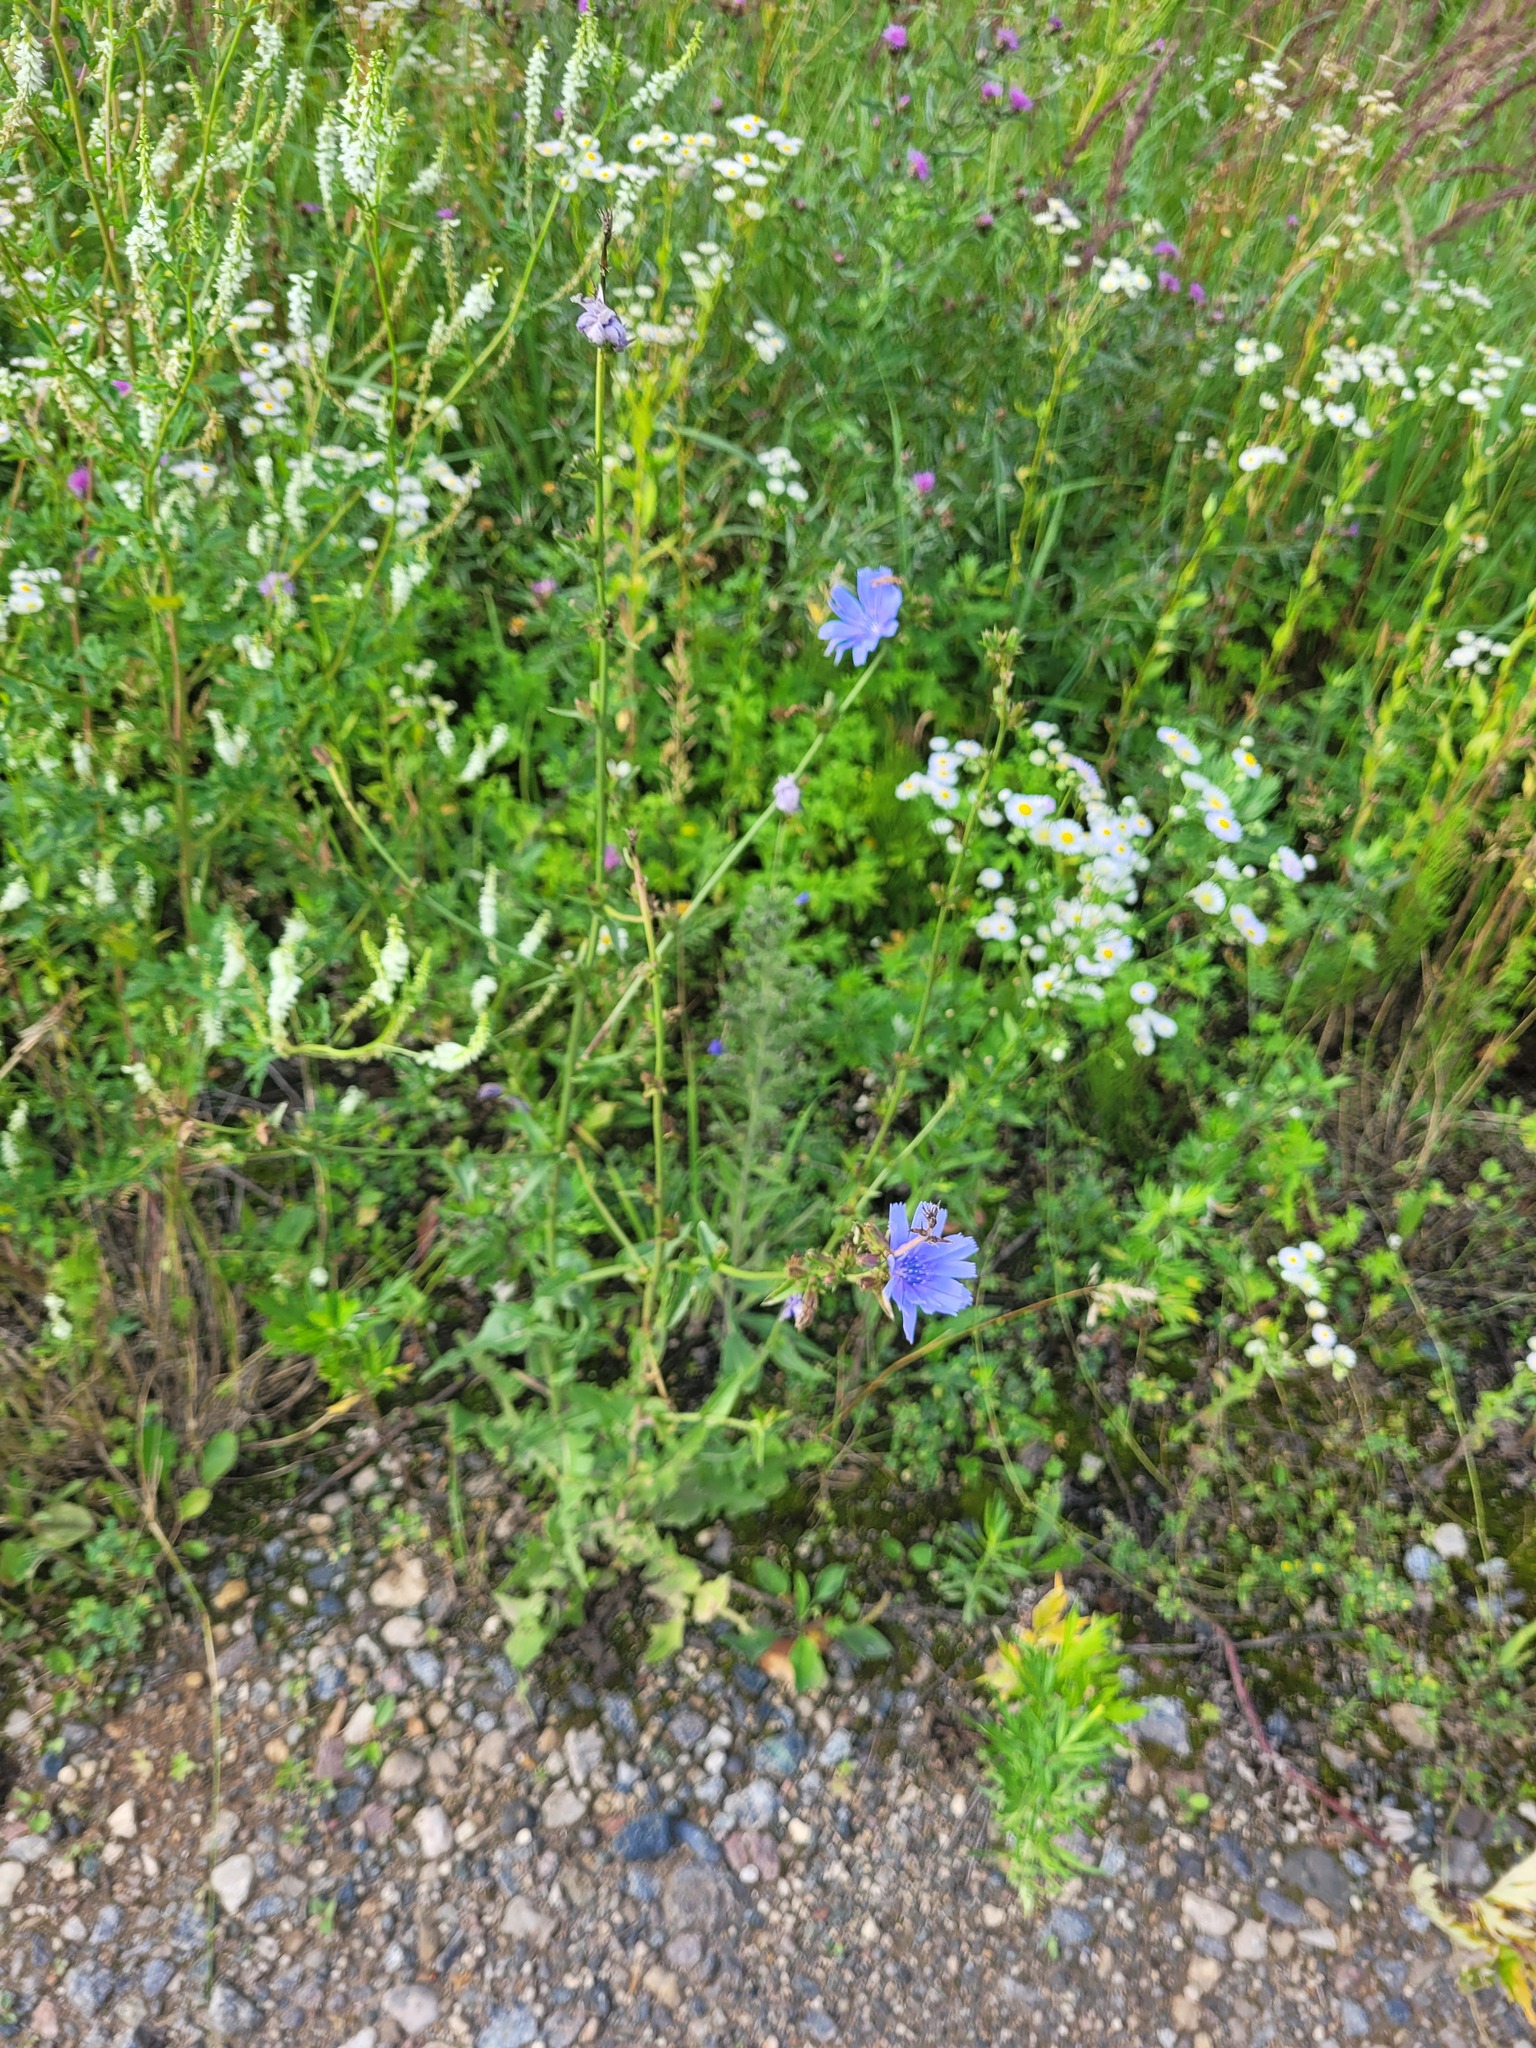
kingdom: Plantae
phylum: Tracheophyta
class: Magnoliopsida
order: Asterales
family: Asteraceae
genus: Cichorium
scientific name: Cichorium intybus
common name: Chicory
